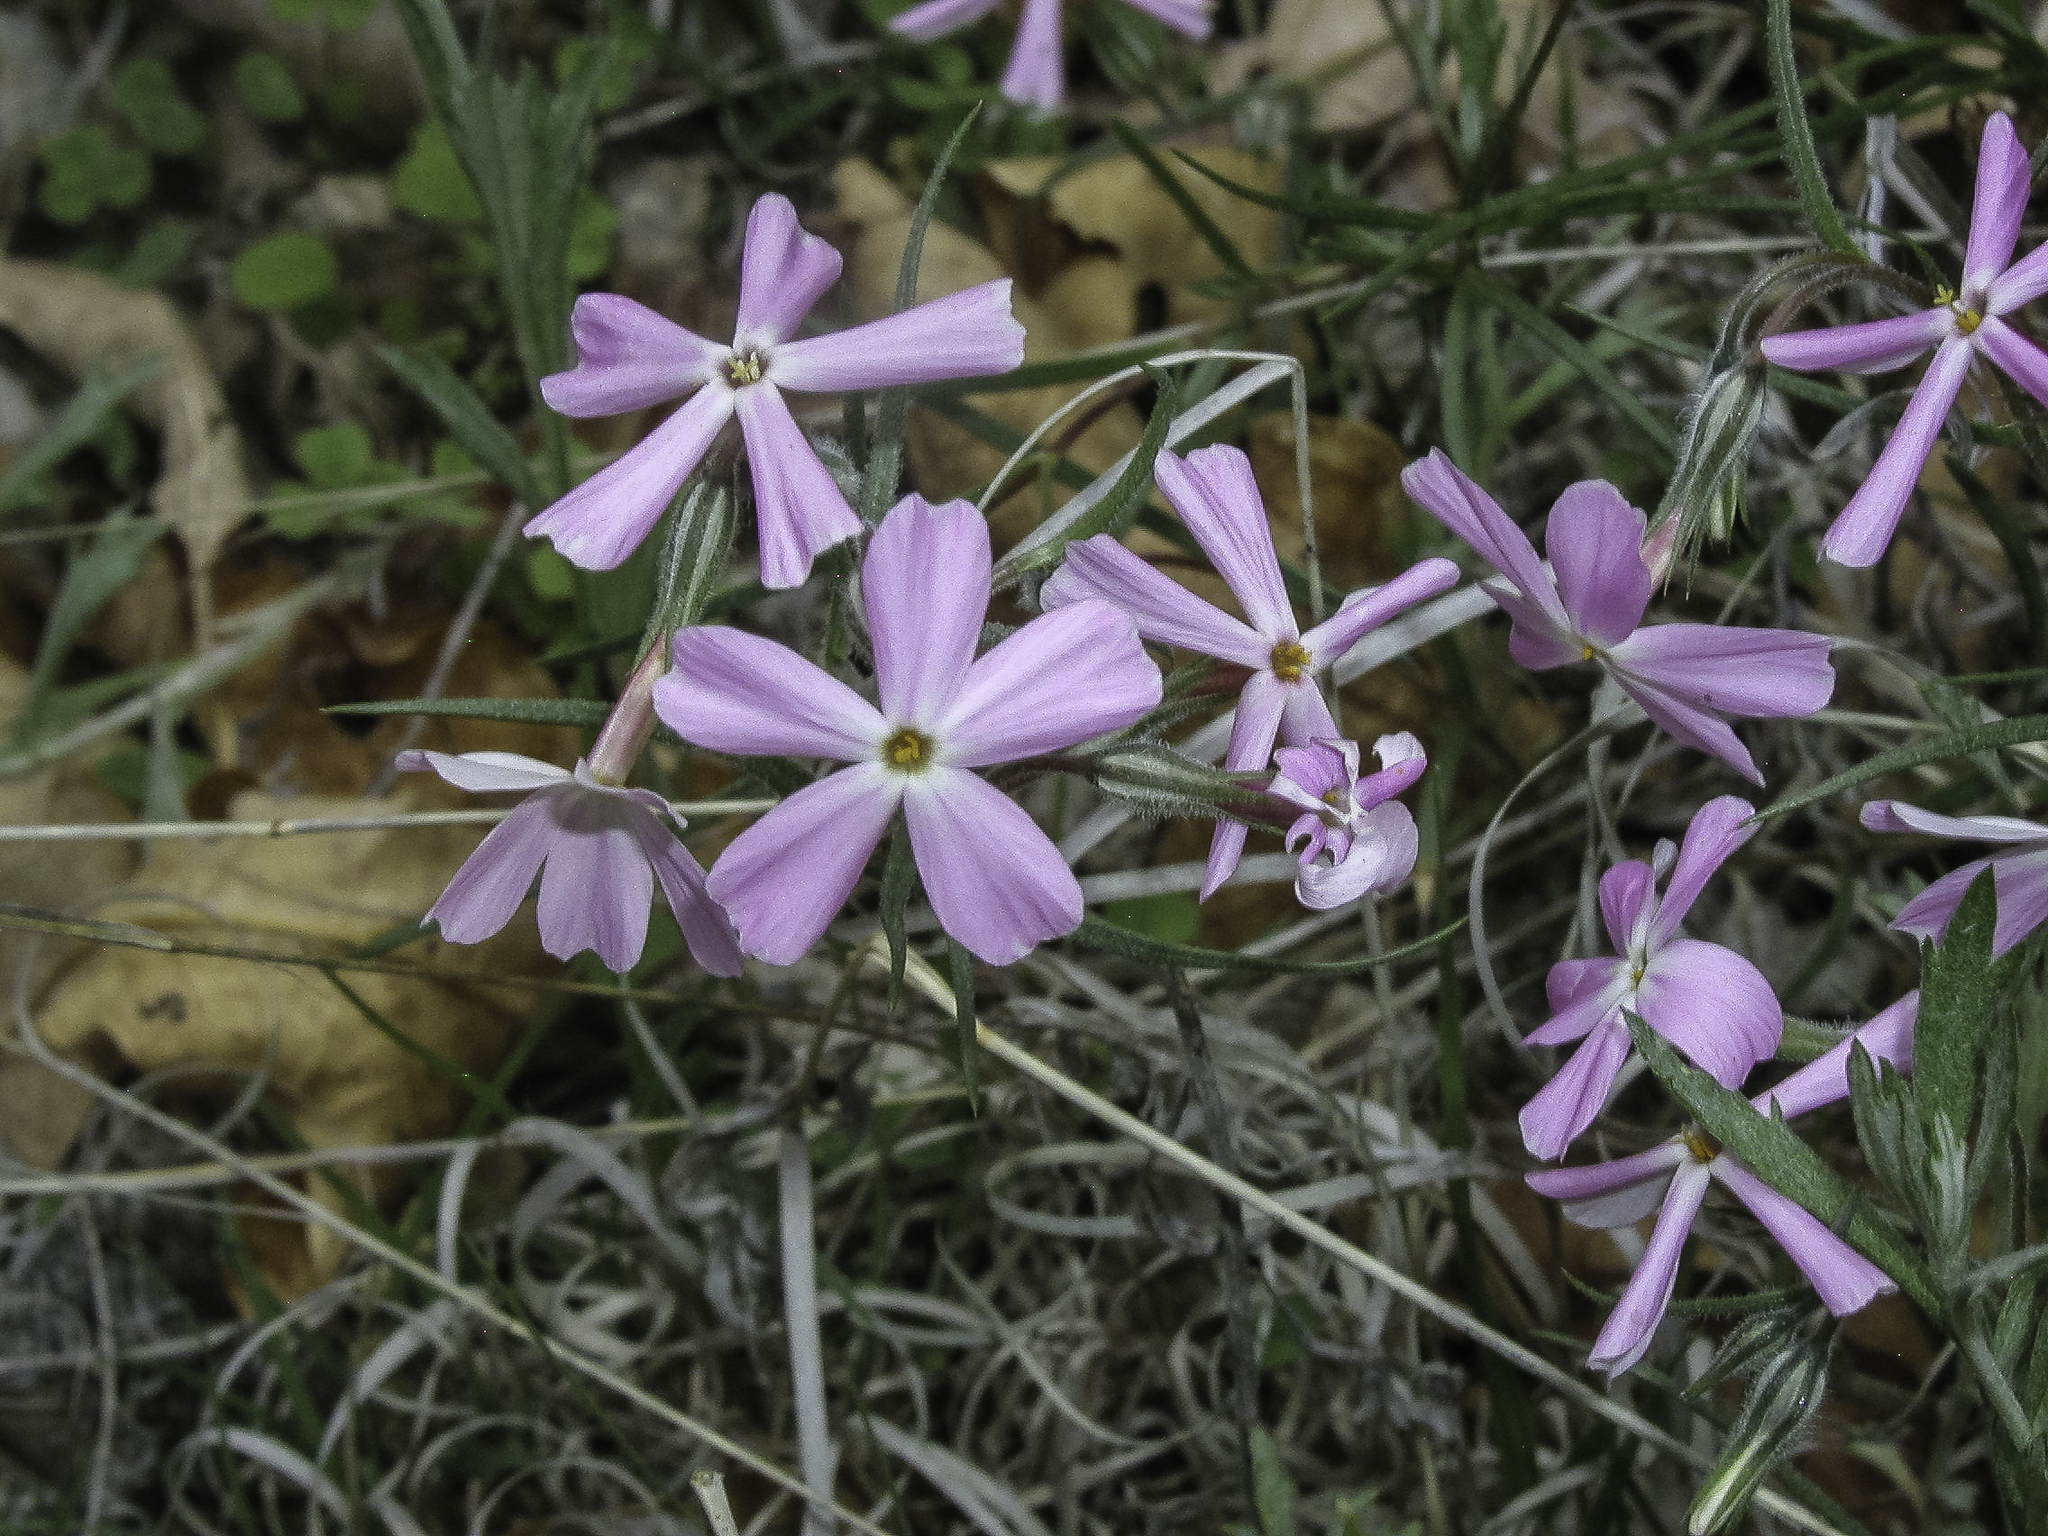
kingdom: Plantae
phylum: Tracheophyta
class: Magnoliopsida
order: Ericales
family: Polemoniaceae
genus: Phlox
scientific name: Phlox longifolia
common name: Longleaf phlox
